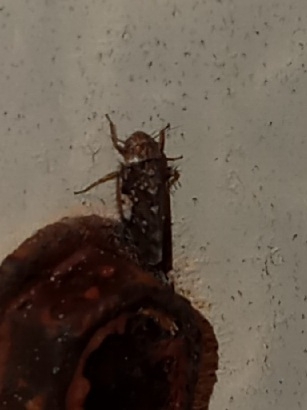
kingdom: Animalia
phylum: Arthropoda
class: Insecta
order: Hemiptera
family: Cicadellidae
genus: Xestocephalus
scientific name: Xestocephalus tessellatus
